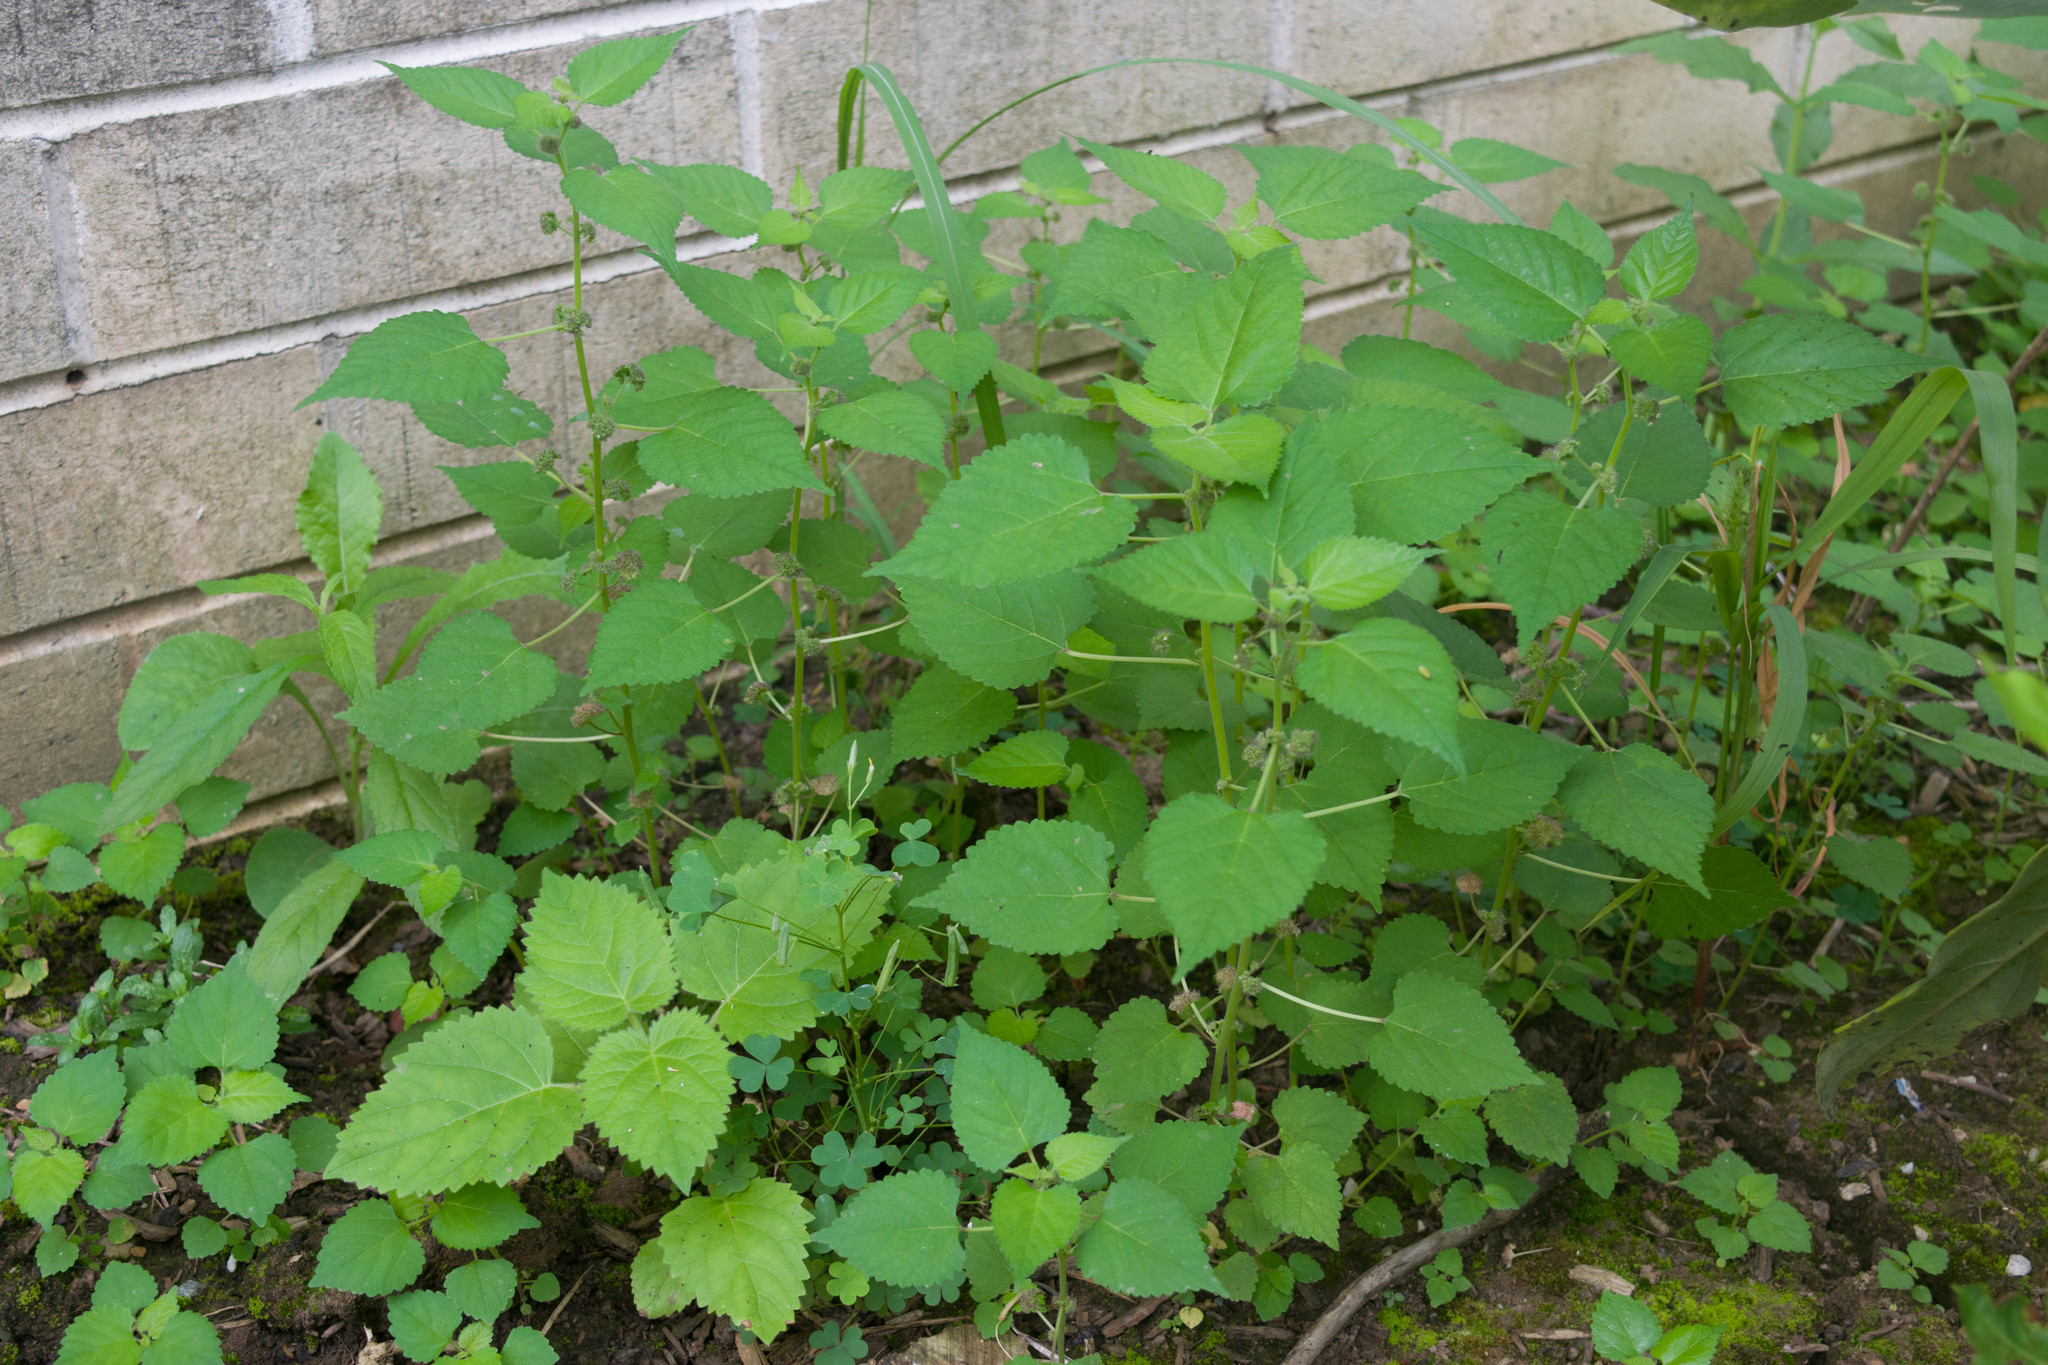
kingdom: Plantae
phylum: Tracheophyta
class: Magnoliopsida
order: Rosales
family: Moraceae
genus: Fatoua
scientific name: Fatoua villosa
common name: Hairy crabweed
